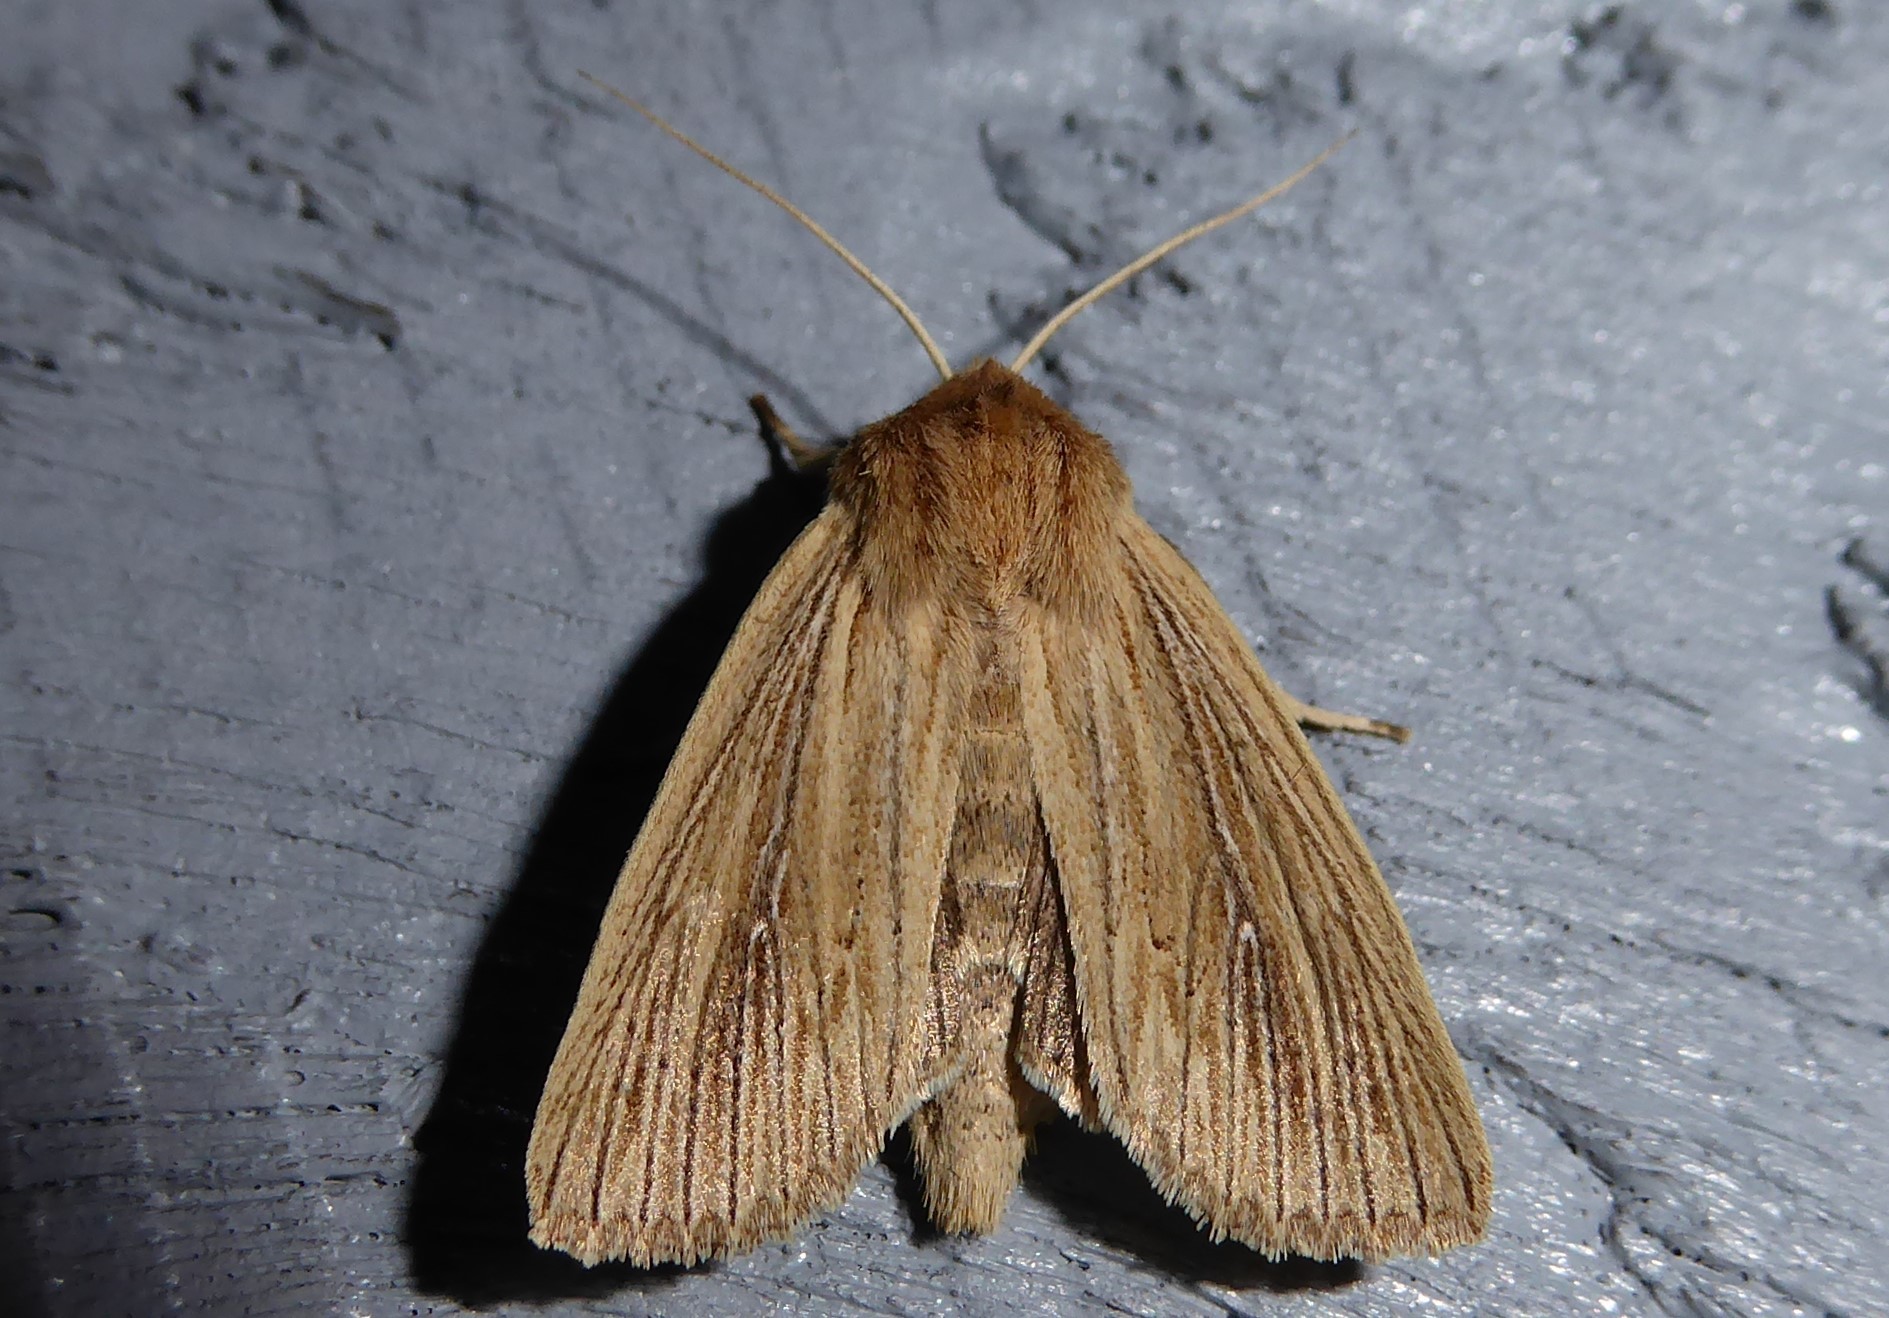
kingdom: Animalia
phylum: Arthropoda
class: Insecta
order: Lepidoptera
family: Noctuidae
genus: Ichneutica
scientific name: Ichneutica arotis
